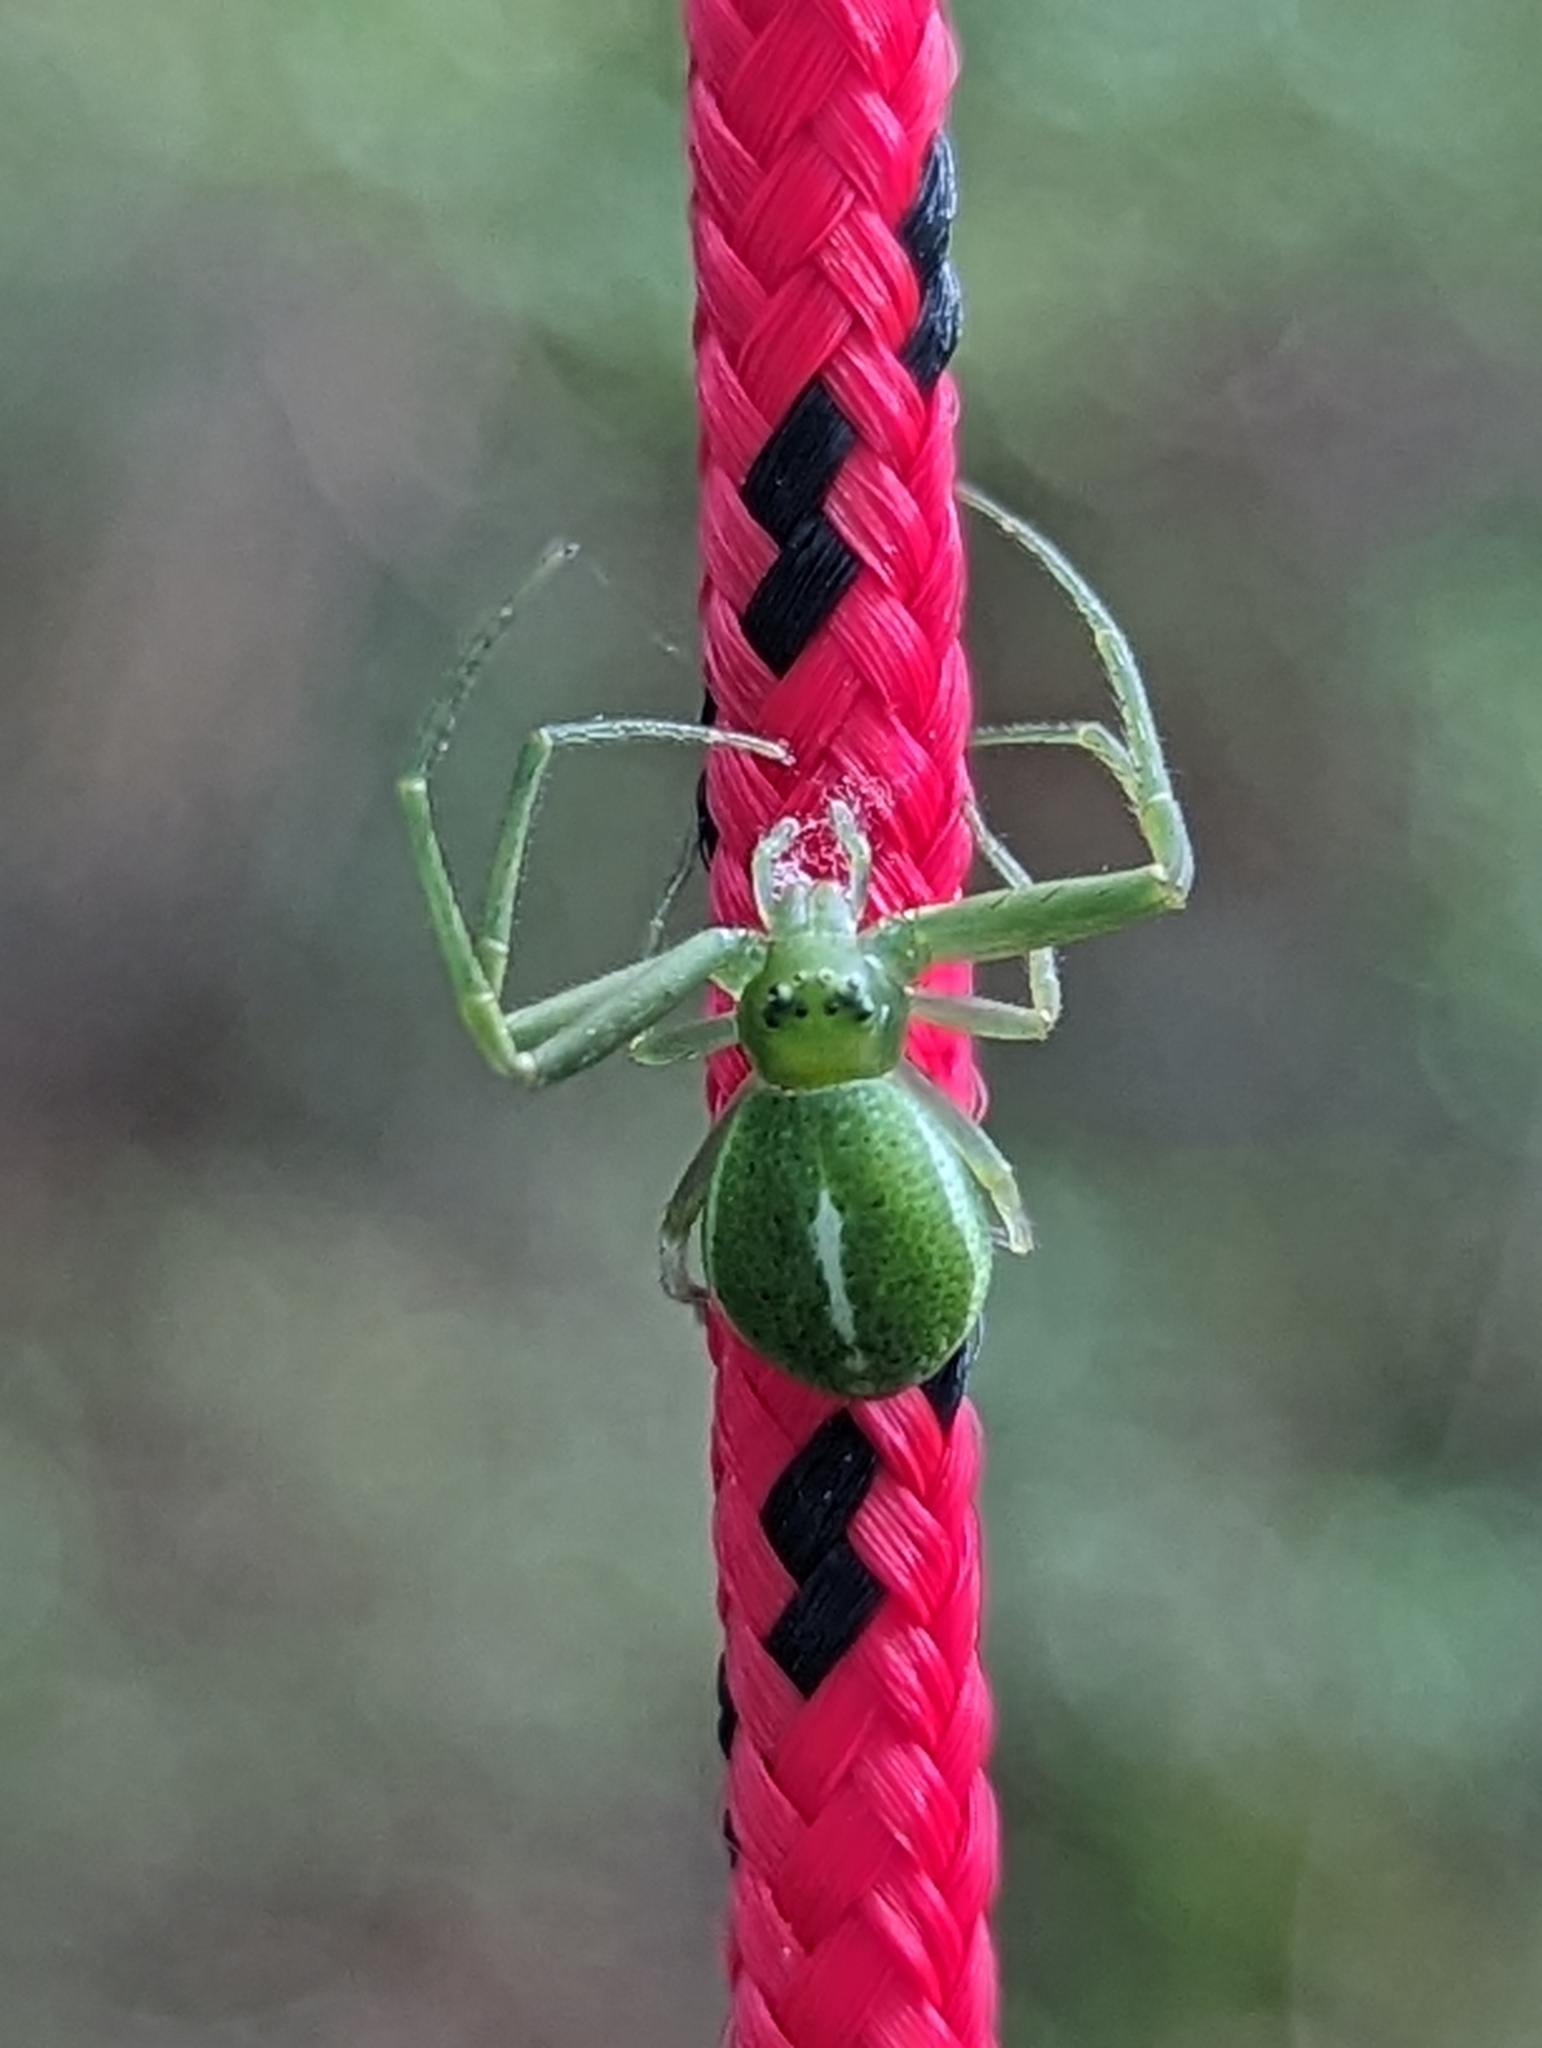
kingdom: Animalia
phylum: Arthropoda
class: Arachnida
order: Araneae
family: Thomisidae
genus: Cetratus
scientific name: Cetratus circumlitus
